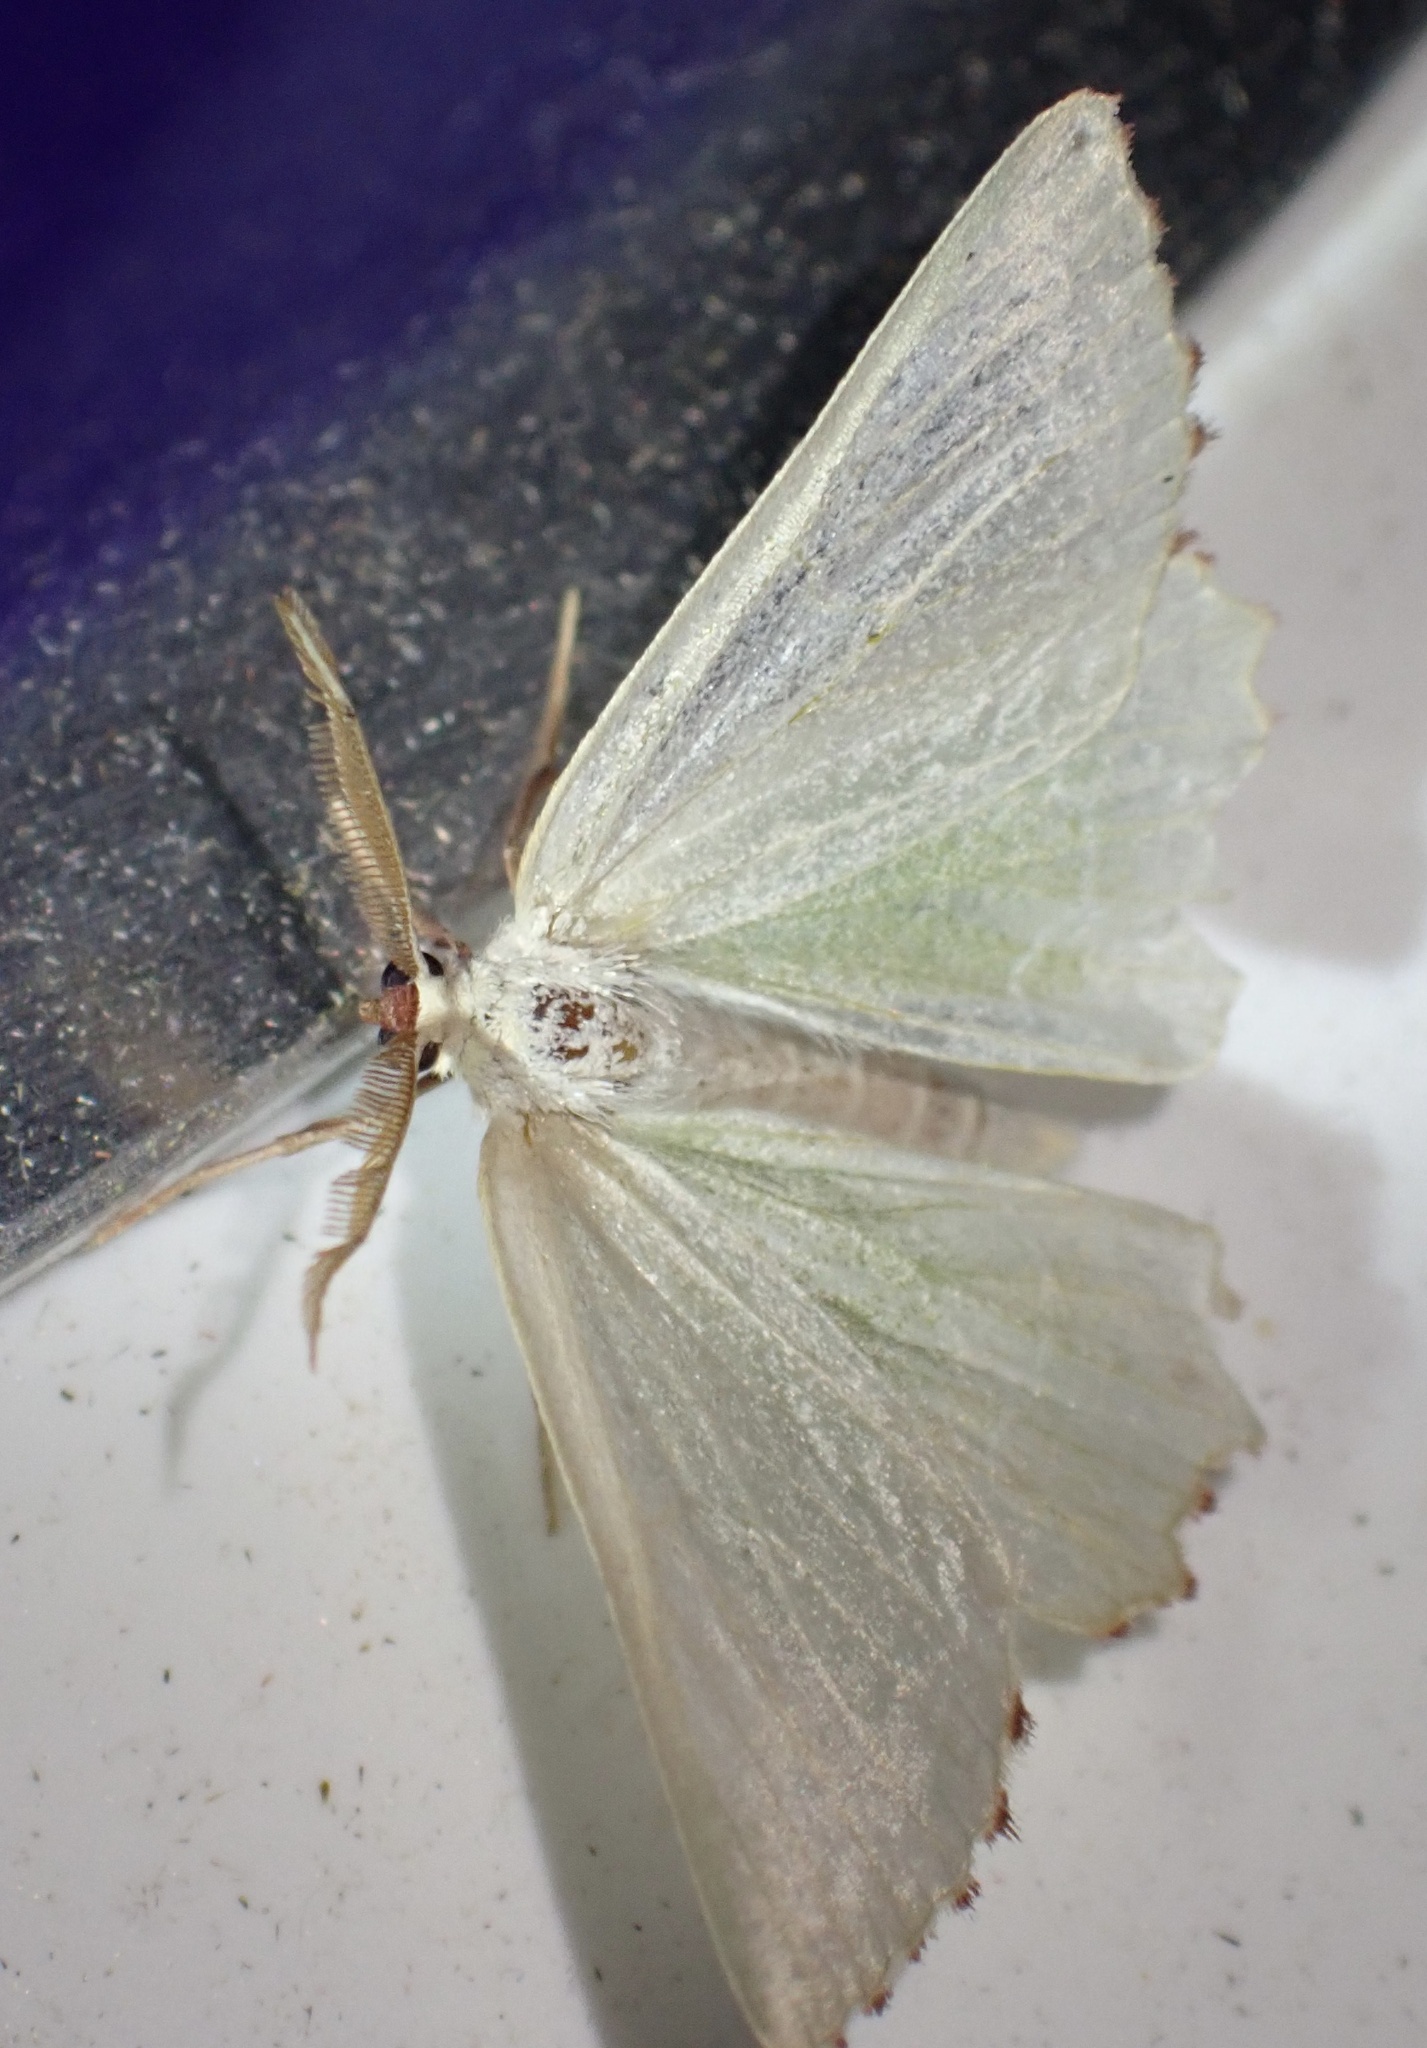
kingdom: Animalia
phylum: Arthropoda
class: Insecta
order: Lepidoptera
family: Geometridae
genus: Thalera
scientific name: Thalera fimbrialis
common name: Sussex emerald
